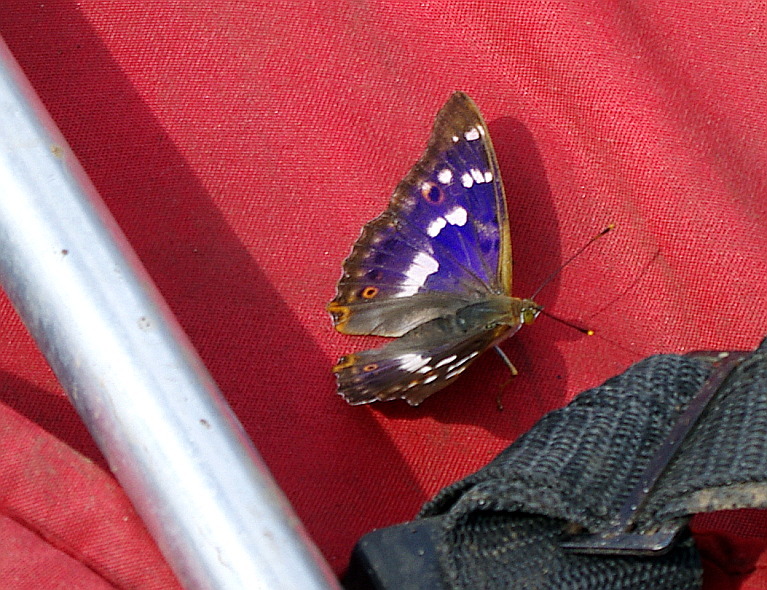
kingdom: Animalia
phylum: Arthropoda
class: Insecta
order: Lepidoptera
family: Nymphalidae
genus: Apatura
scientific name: Apatura ilia
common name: Lesser purple emperor
